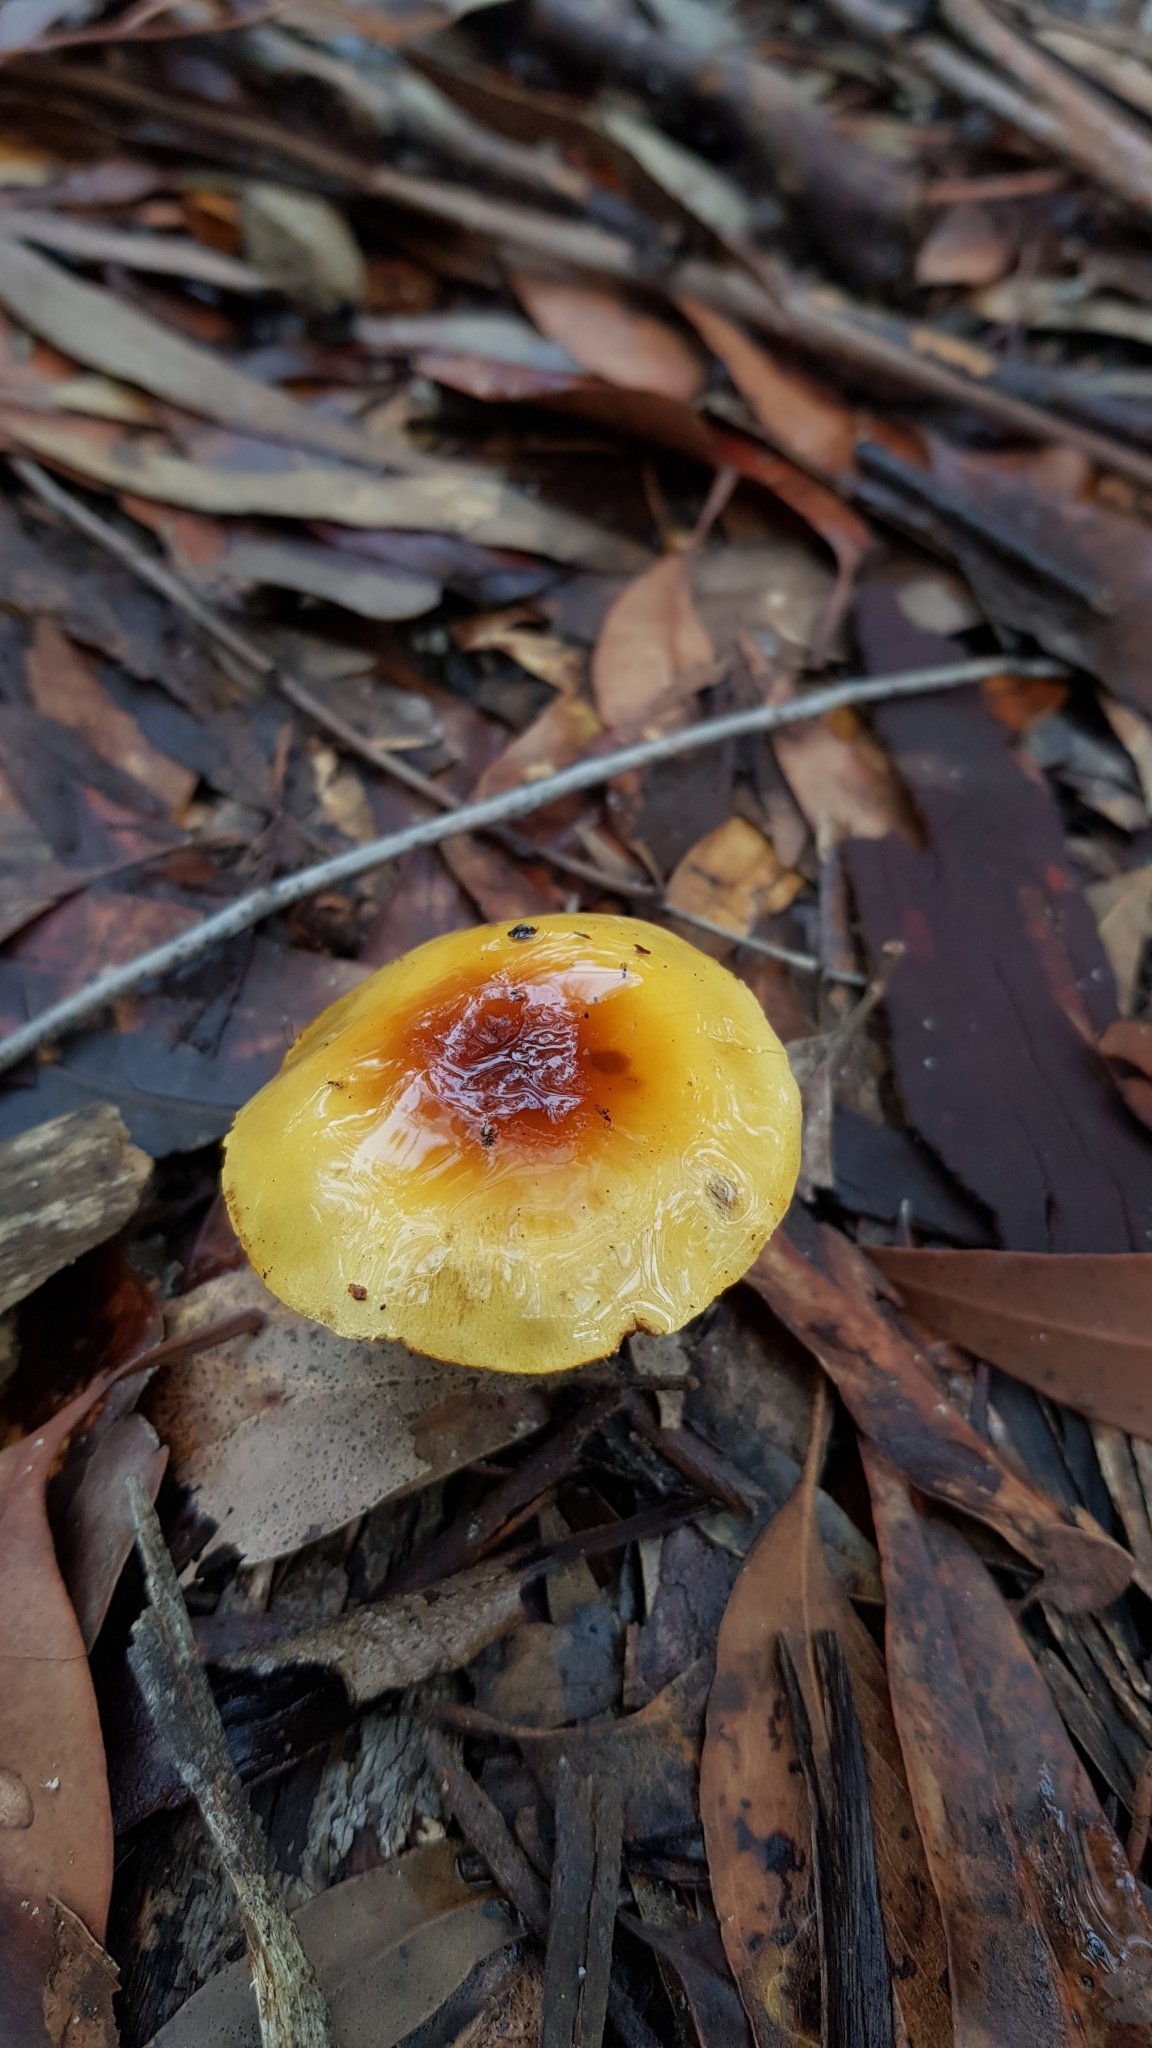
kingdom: Fungi
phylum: Basidiomycota
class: Agaricomycetes
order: Agaricales
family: Cortinariaceae
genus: Cortinarius
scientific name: Cortinarius sinapicolor
